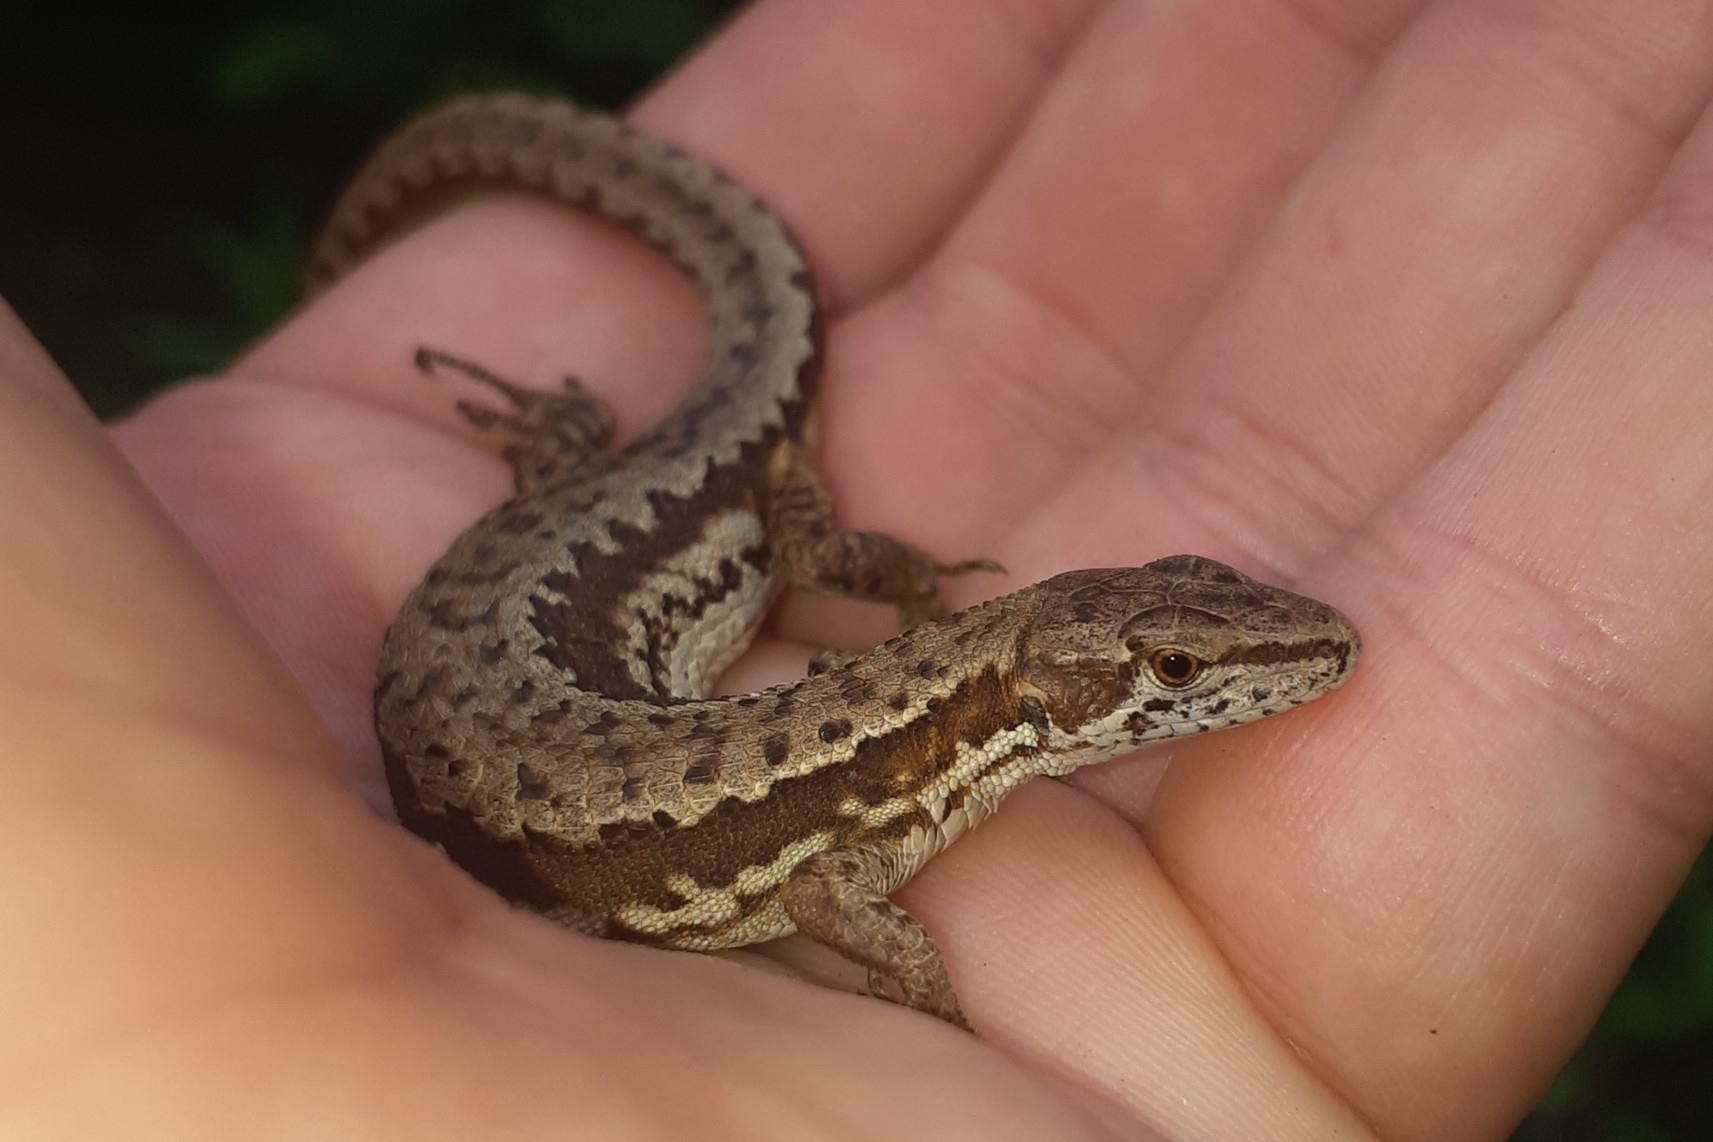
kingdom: Animalia
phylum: Chordata
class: Squamata
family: Lacertidae
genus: Takydromus
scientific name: Takydromus amurensis
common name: Amur grass lizard
